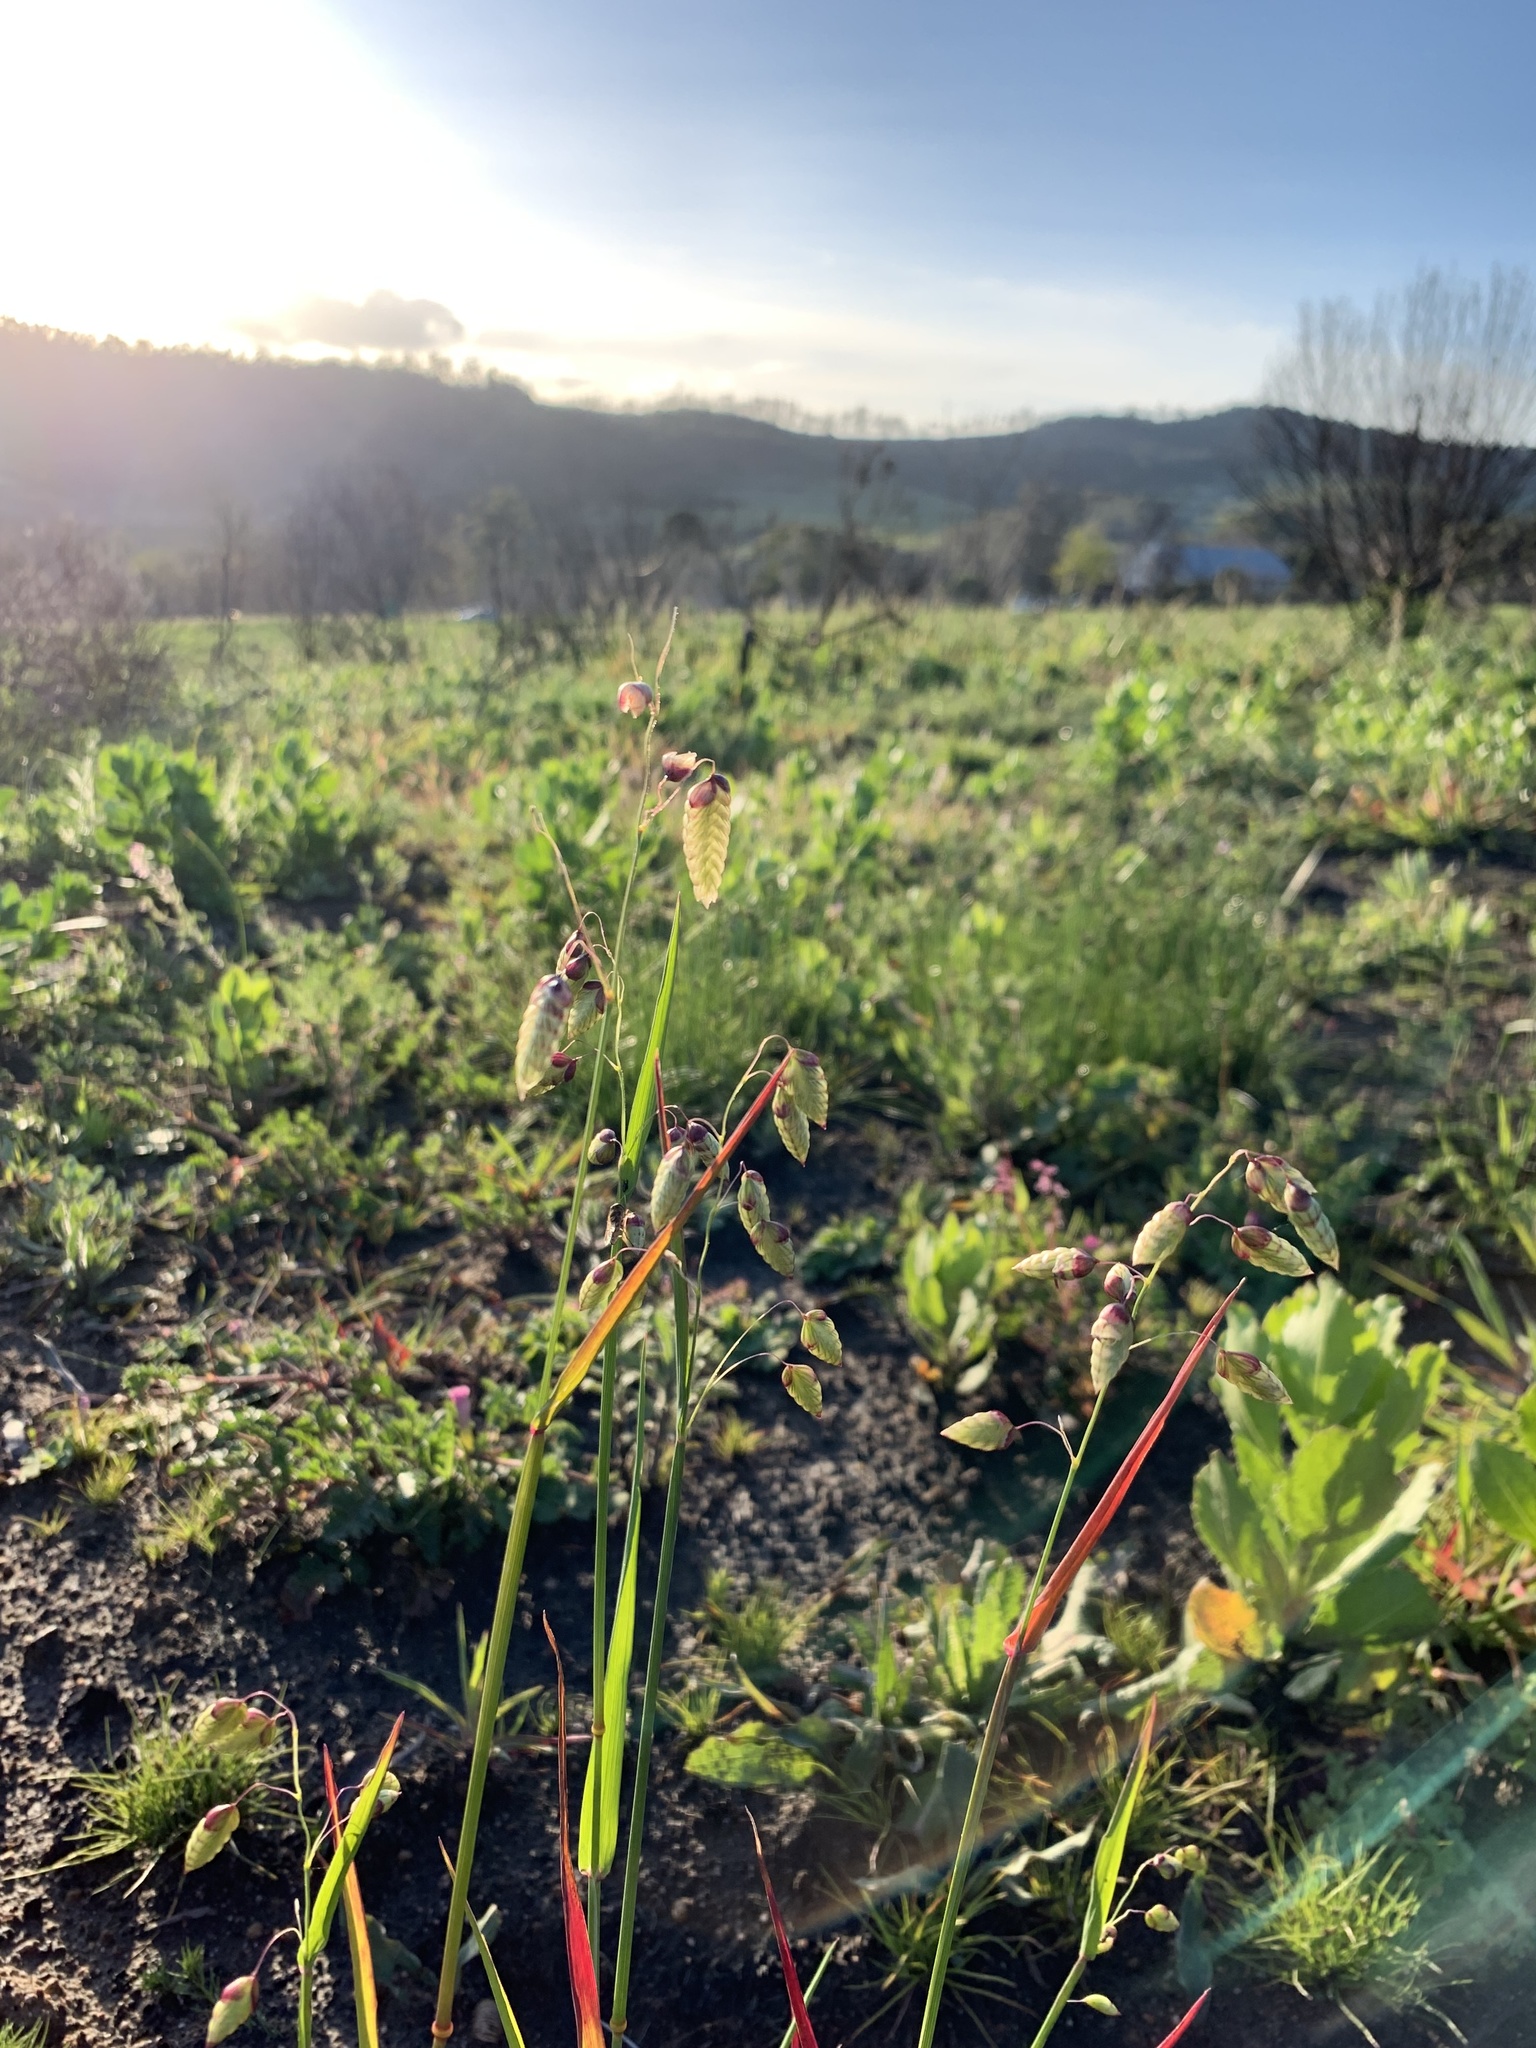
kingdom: Plantae
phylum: Tracheophyta
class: Liliopsida
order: Poales
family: Poaceae
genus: Briza
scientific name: Briza maxima
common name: Big quakinggrass
